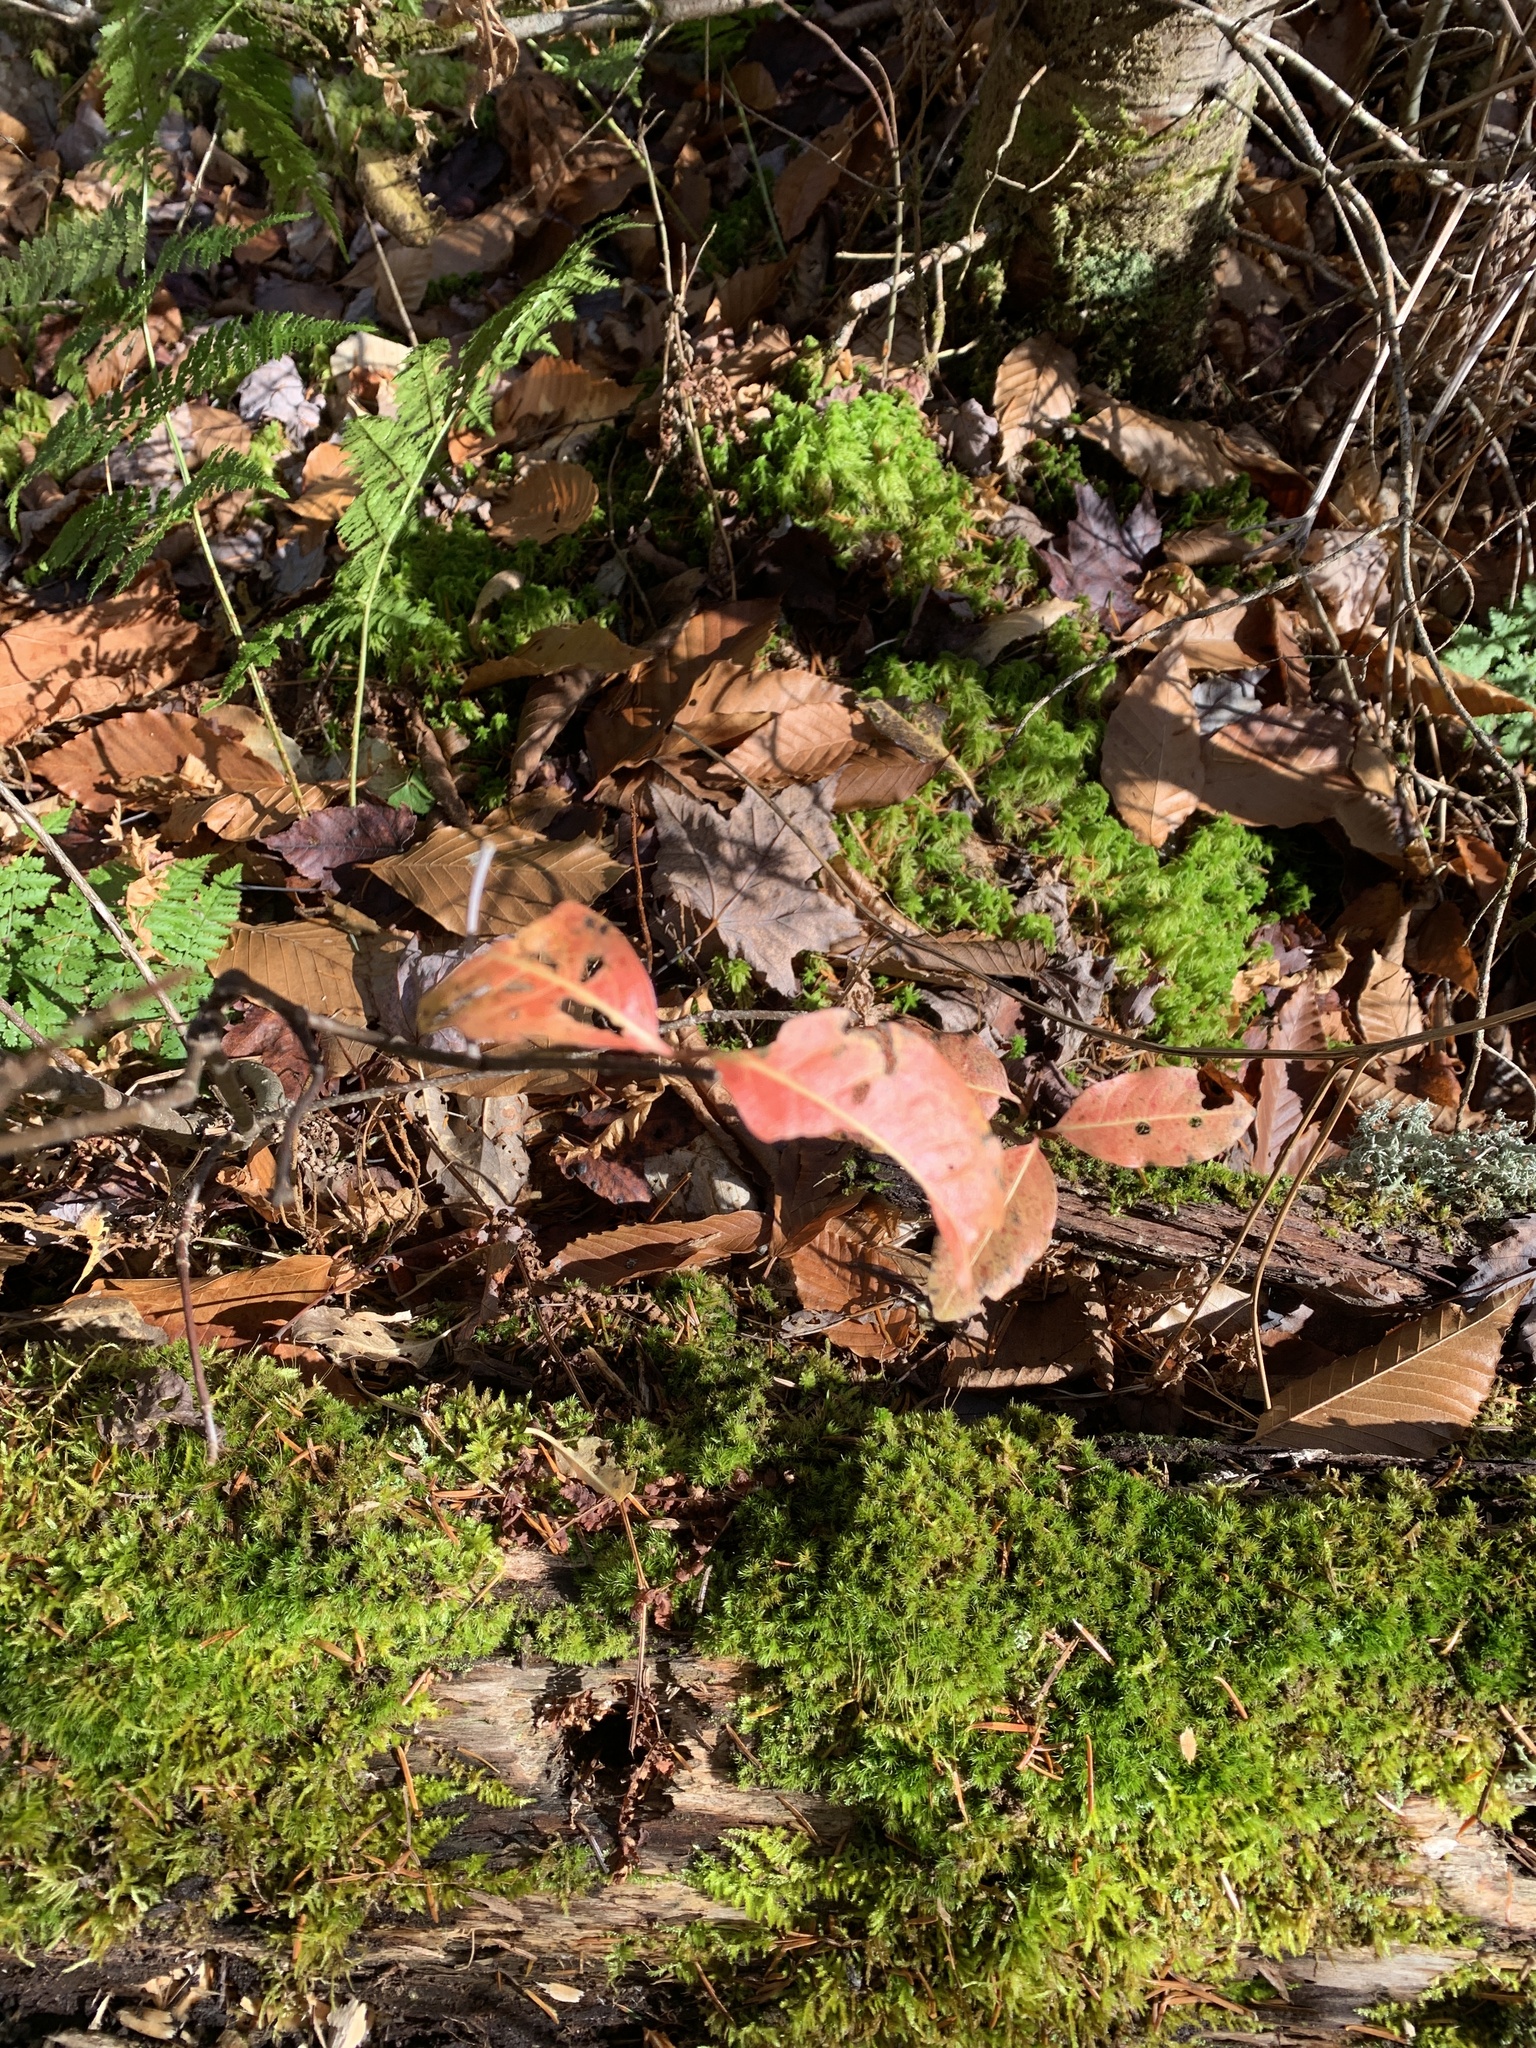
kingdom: Plantae
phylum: Tracheophyta
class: Magnoliopsida
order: Dipsacales
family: Viburnaceae
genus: Viburnum
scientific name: Viburnum cassinoides
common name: Swamp haw
